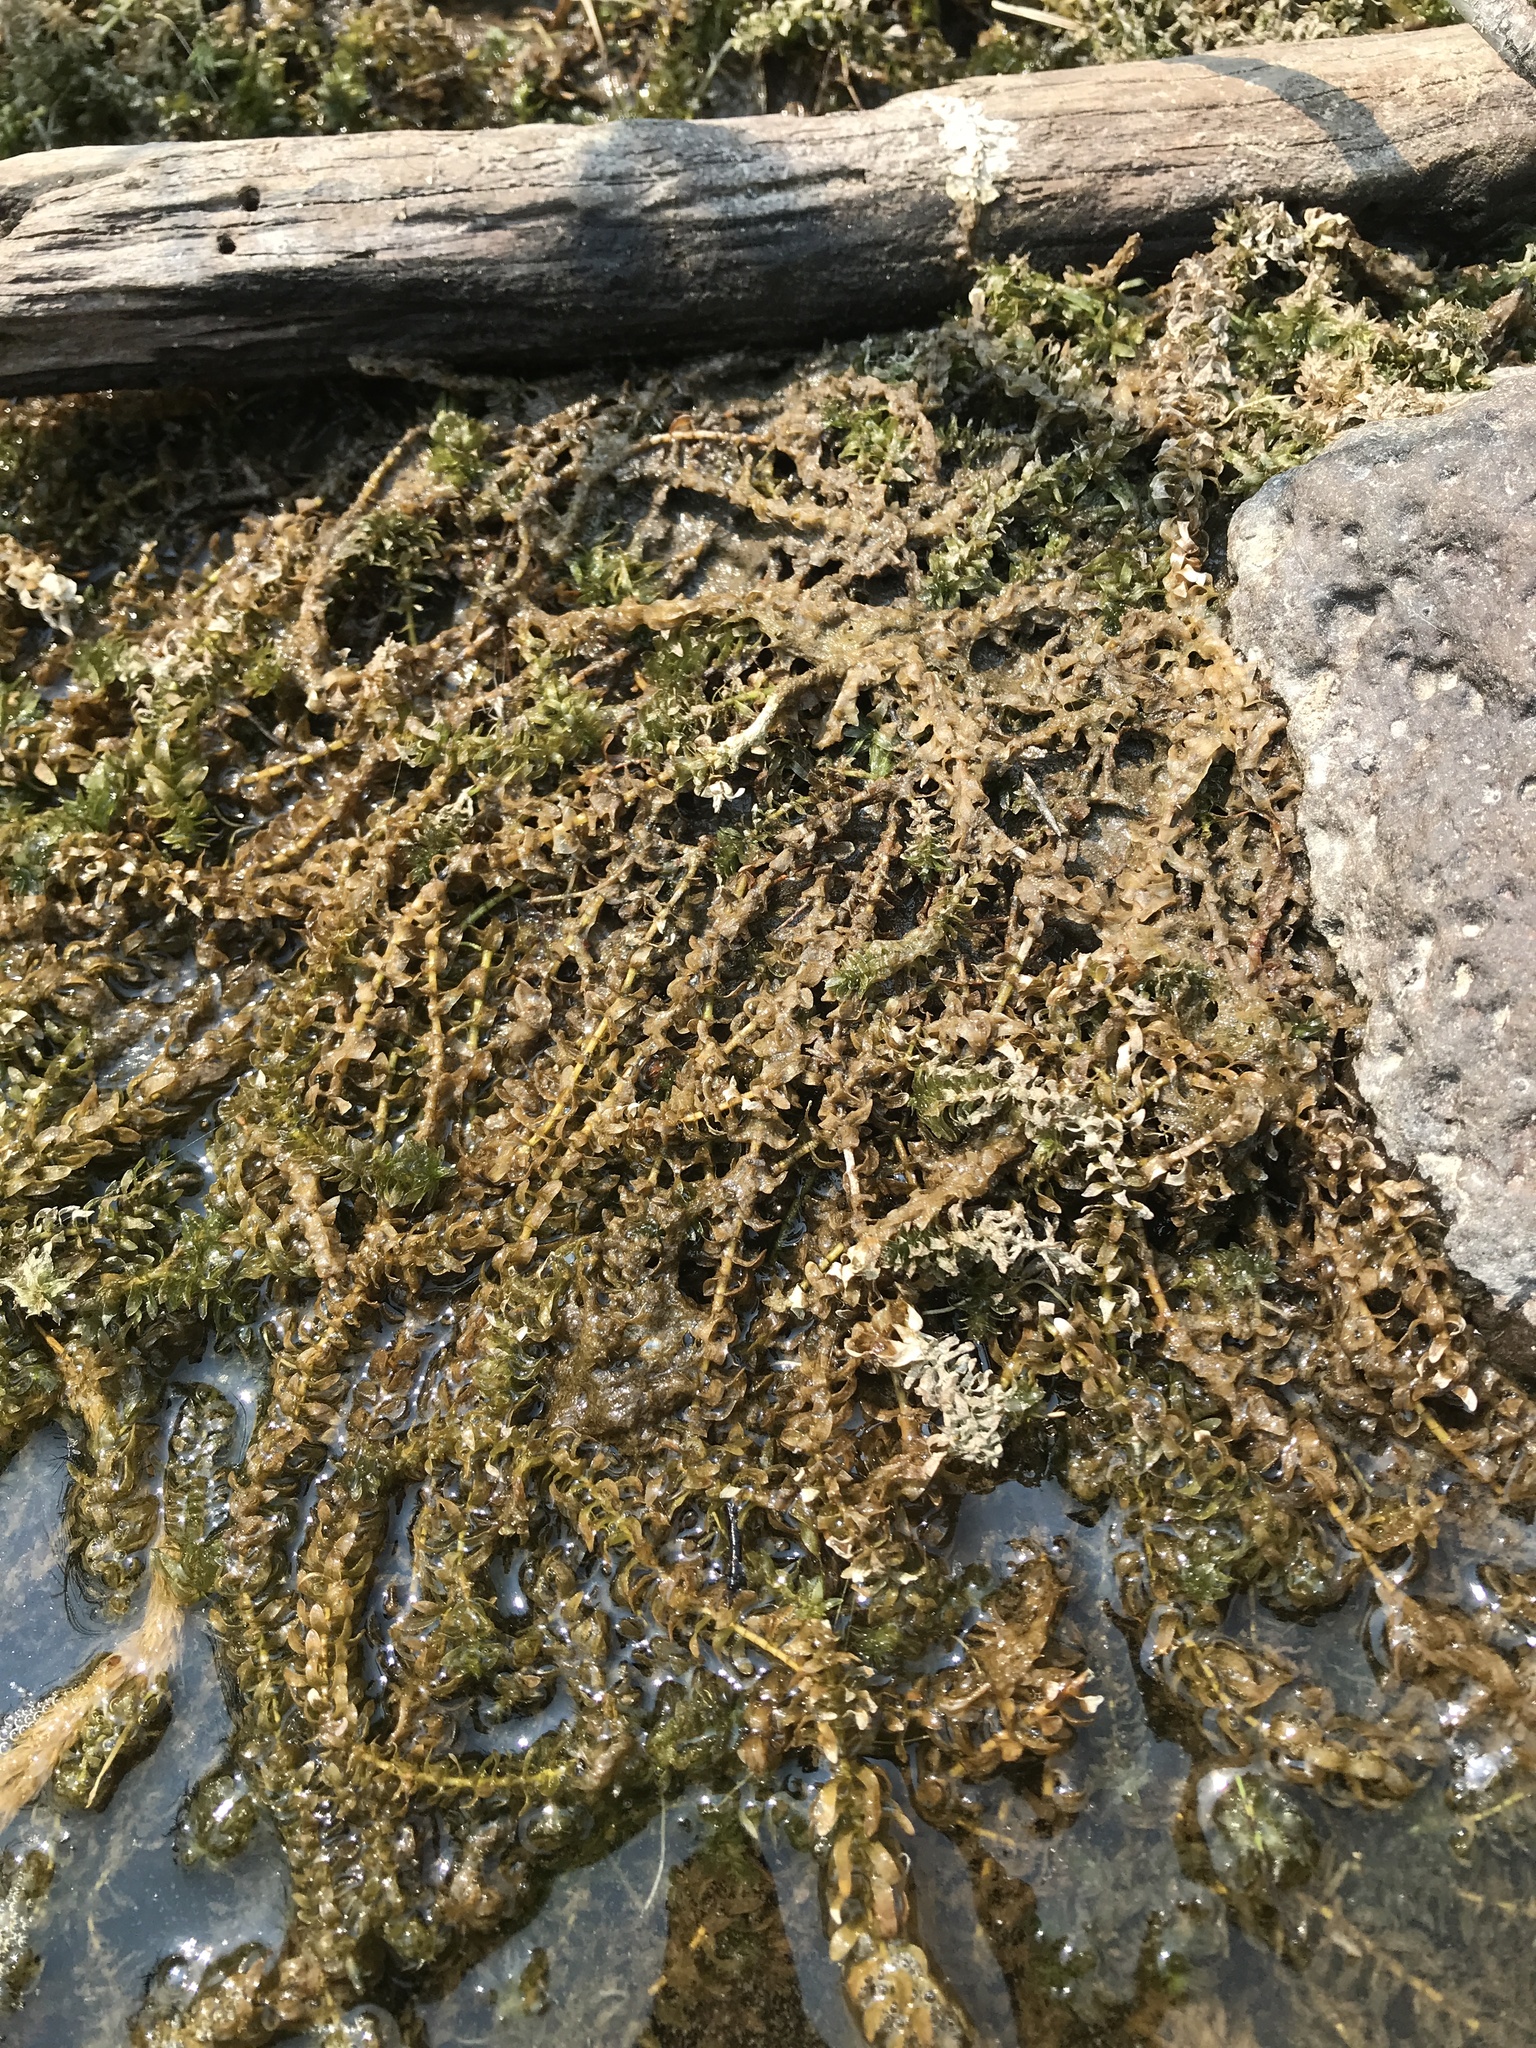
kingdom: Plantae
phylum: Tracheophyta
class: Liliopsida
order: Alismatales
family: Hydrocharitaceae
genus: Elodea
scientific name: Elodea canadensis
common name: Canadian waterweed
